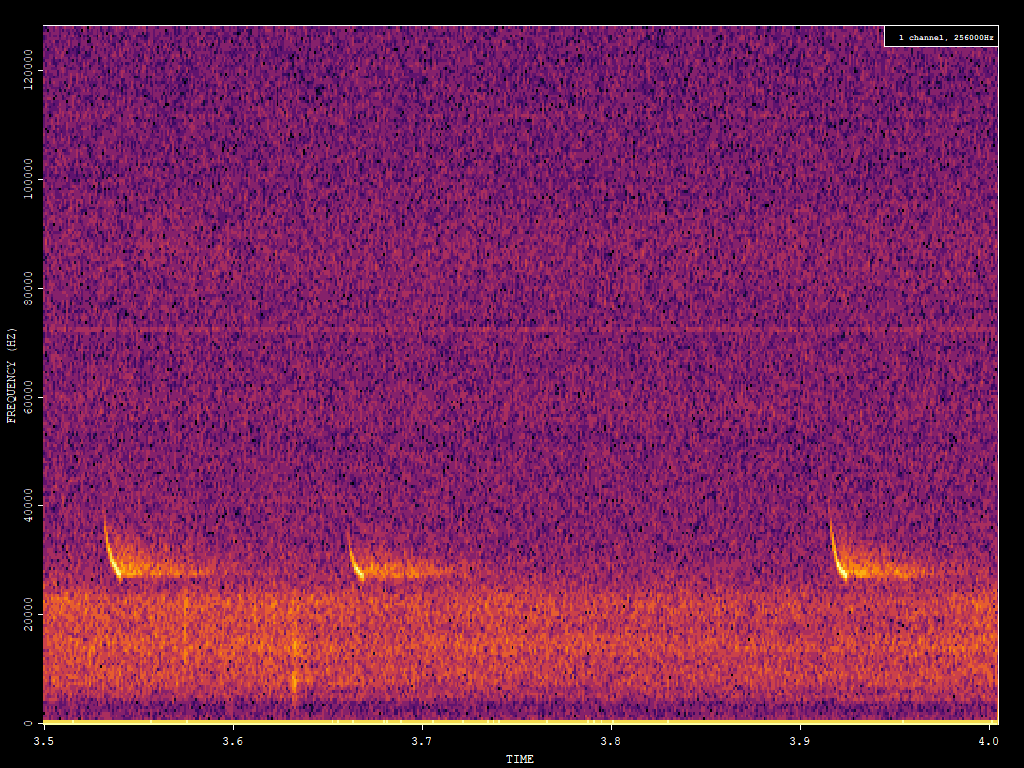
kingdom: Animalia
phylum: Chordata
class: Mammalia
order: Chiroptera
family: Vespertilionidae
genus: Eptesicus
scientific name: Eptesicus fuscus
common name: Big brown bat
